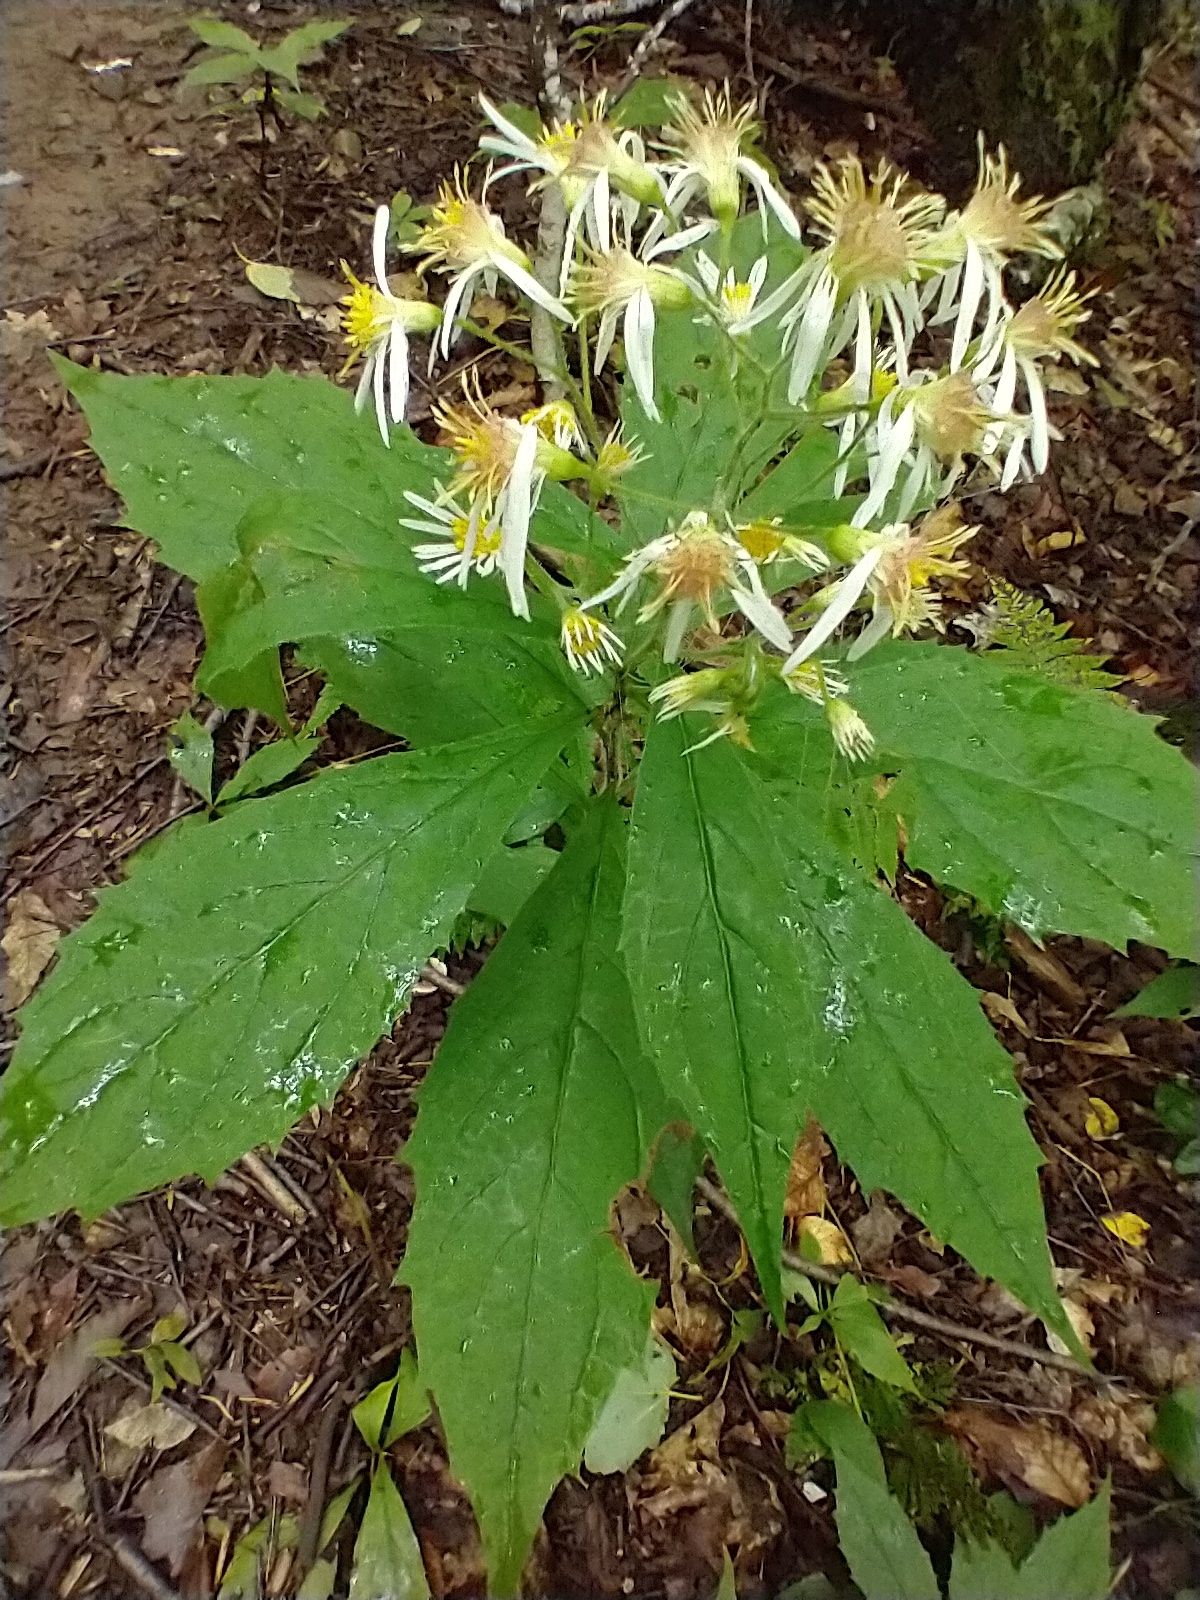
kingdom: Plantae
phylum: Tracheophyta
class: Magnoliopsida
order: Asterales
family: Asteraceae
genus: Oclemena
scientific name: Oclemena acuminata
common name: Mountain aster
